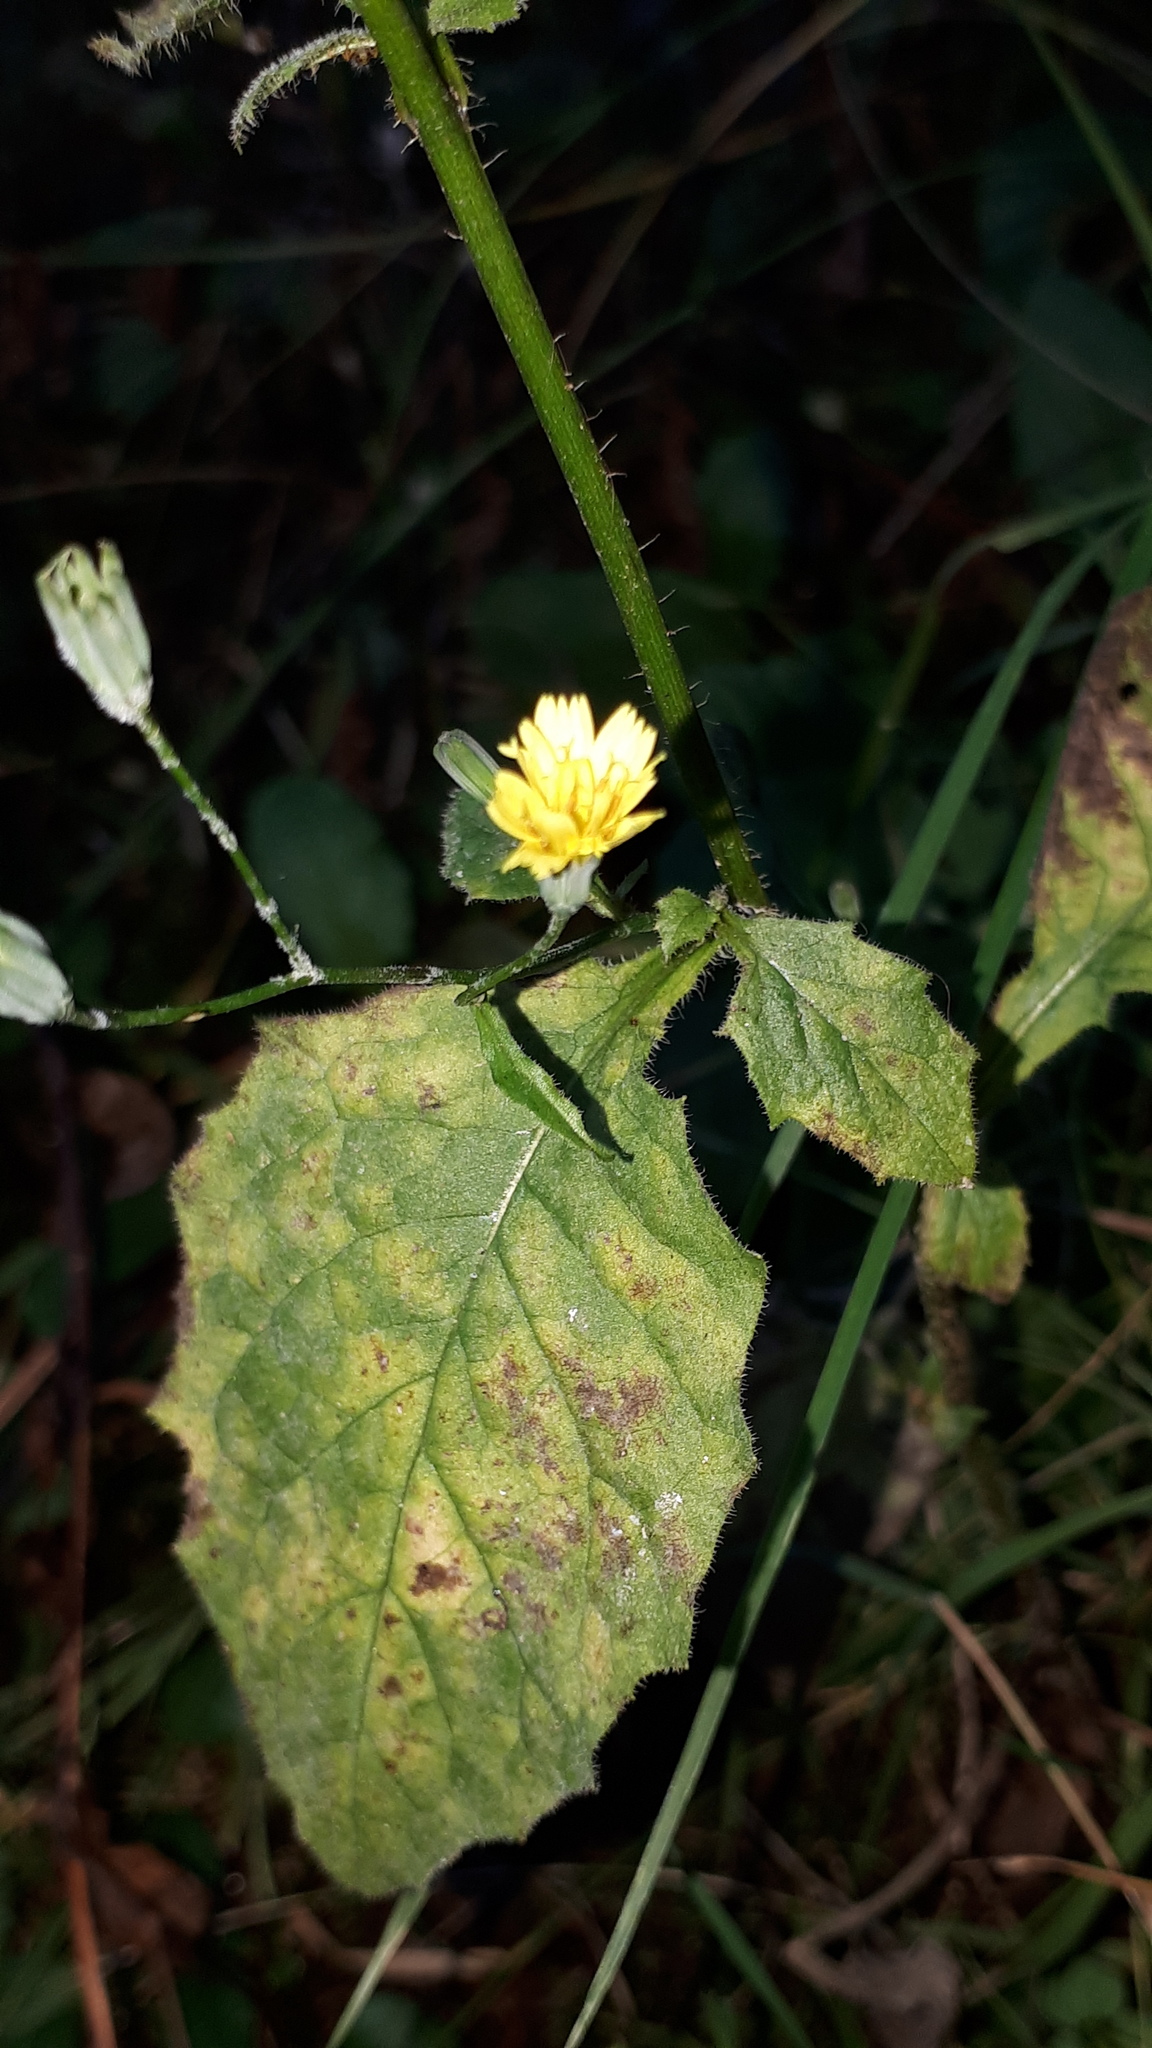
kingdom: Plantae
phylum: Tracheophyta
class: Magnoliopsida
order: Asterales
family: Asteraceae
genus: Lapsana
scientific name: Lapsana communis
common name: Nipplewort
